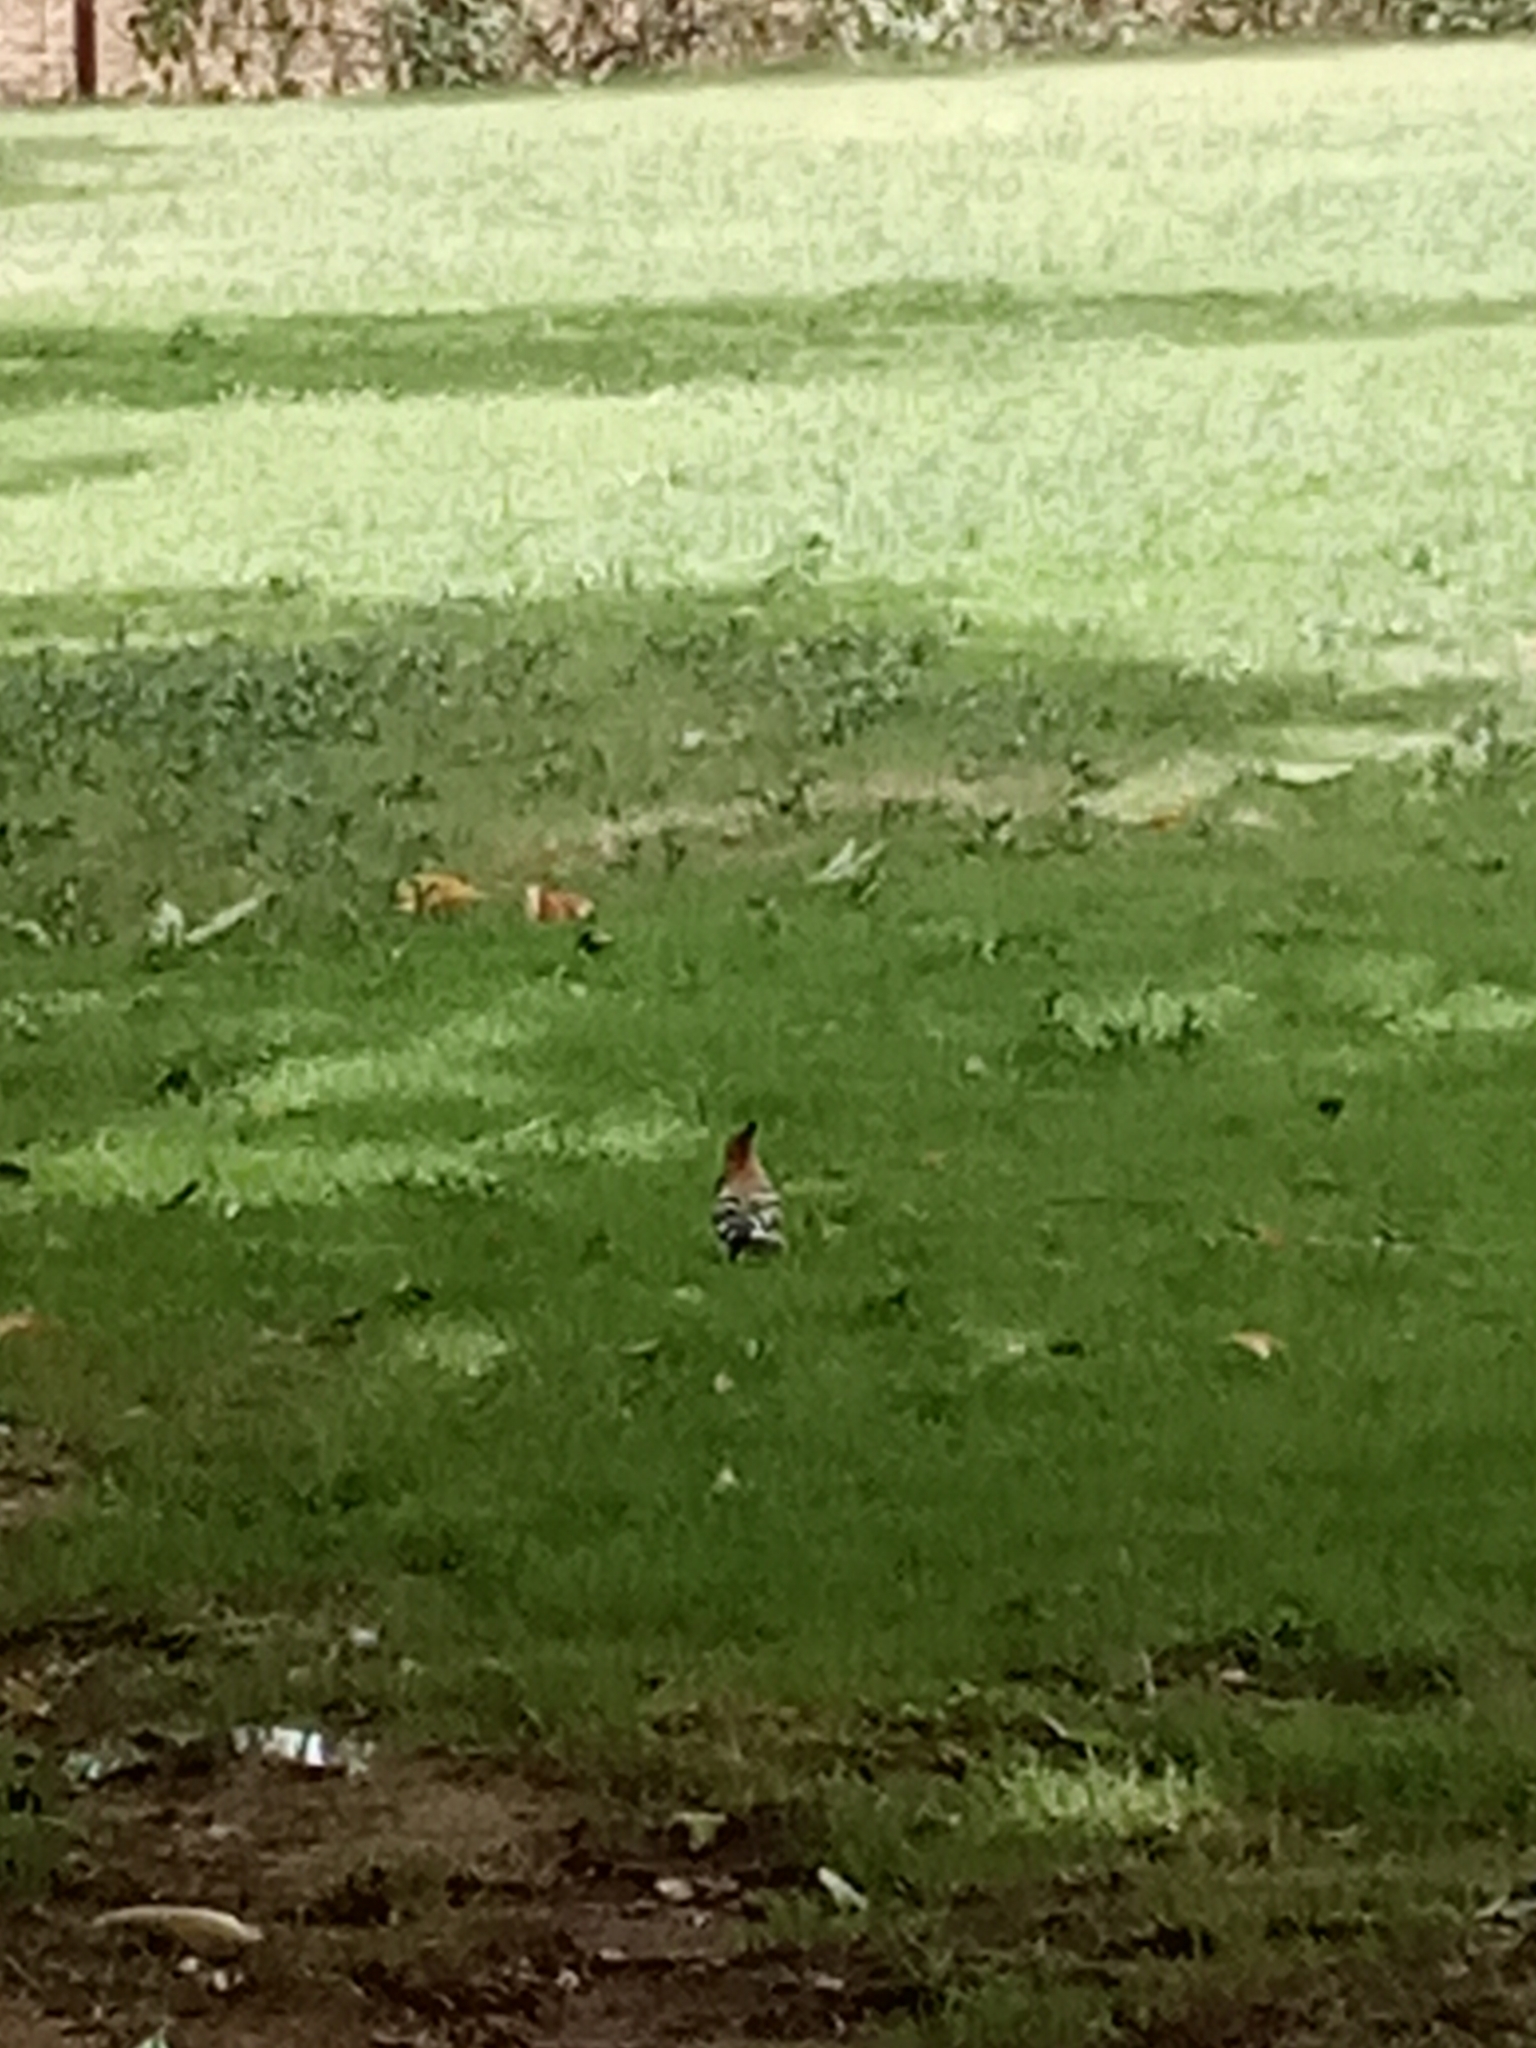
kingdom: Animalia
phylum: Chordata
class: Aves
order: Bucerotiformes
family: Upupidae
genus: Upupa
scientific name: Upupa epops
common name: Eurasian hoopoe
